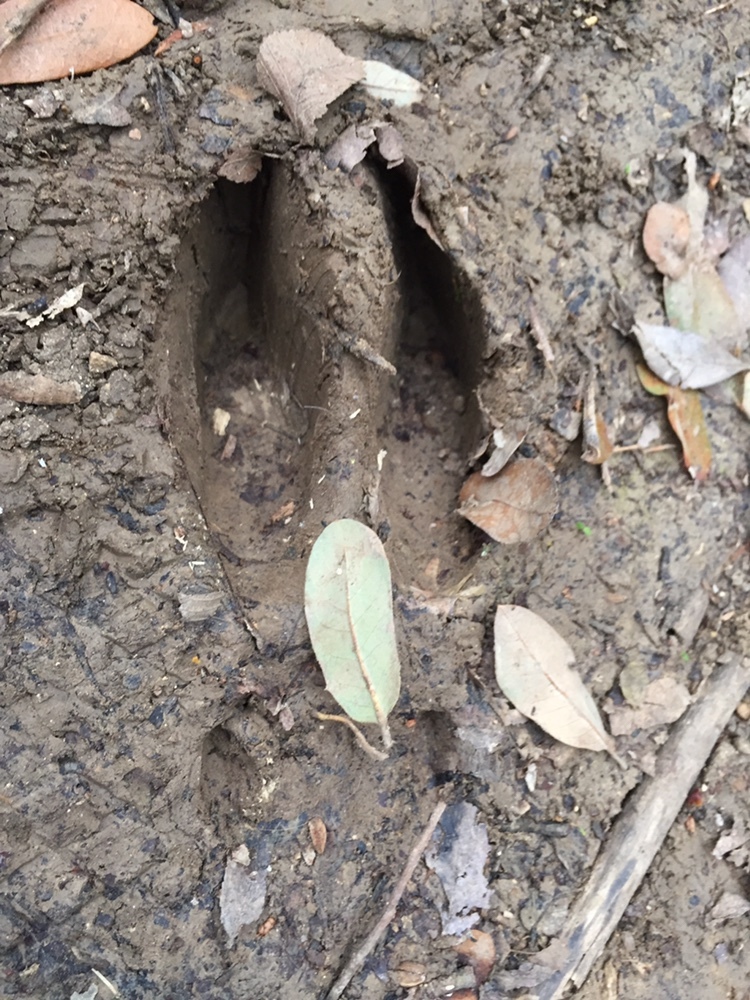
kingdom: Animalia
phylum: Chordata
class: Mammalia
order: Artiodactyla
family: Cervidae
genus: Odocoileus
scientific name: Odocoileus virginianus
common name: White-tailed deer
